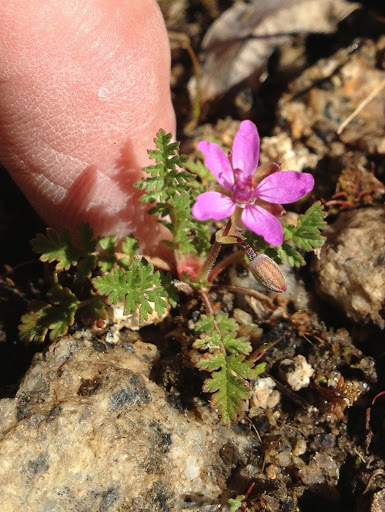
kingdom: Plantae
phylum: Tracheophyta
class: Magnoliopsida
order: Geraniales
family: Geraniaceae
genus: Erodium
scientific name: Erodium cicutarium
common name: Common stork's-bill
